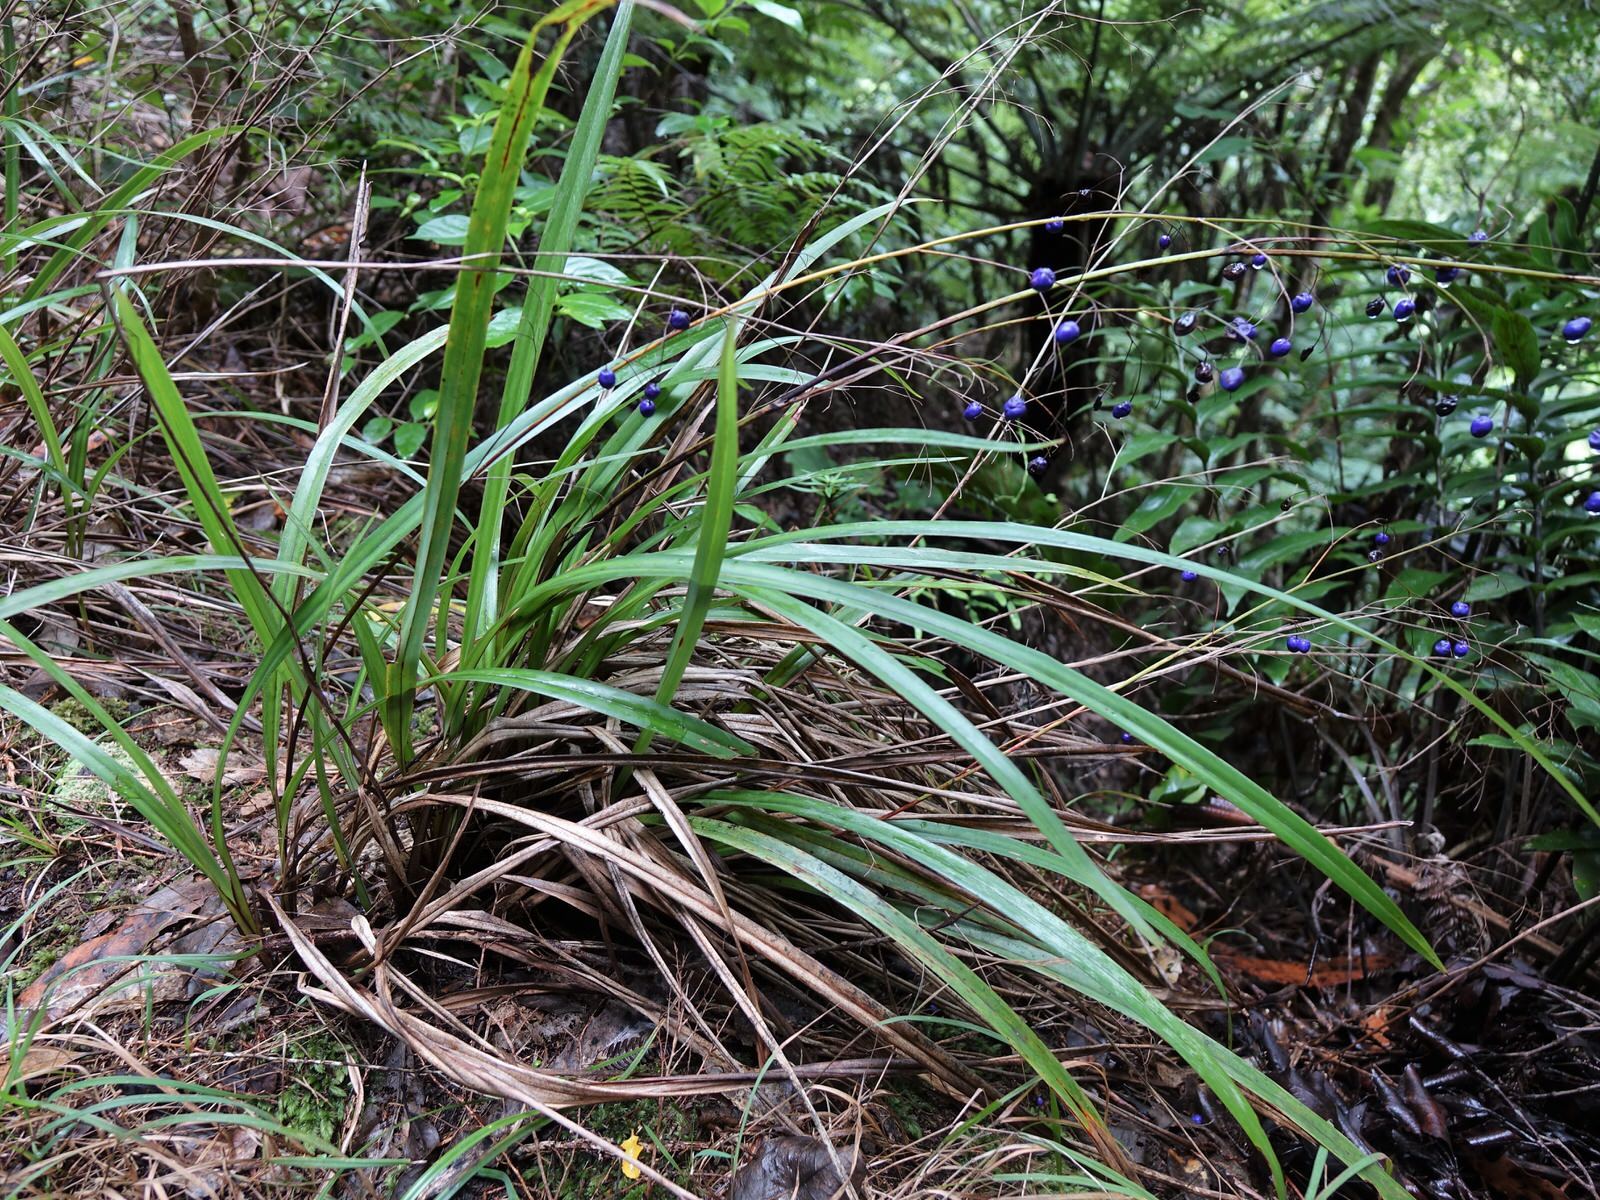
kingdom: Plantae
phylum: Tracheophyta
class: Liliopsida
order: Asparagales
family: Asphodelaceae
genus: Dianella
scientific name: Dianella nigra
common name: New zealand-blueberry
